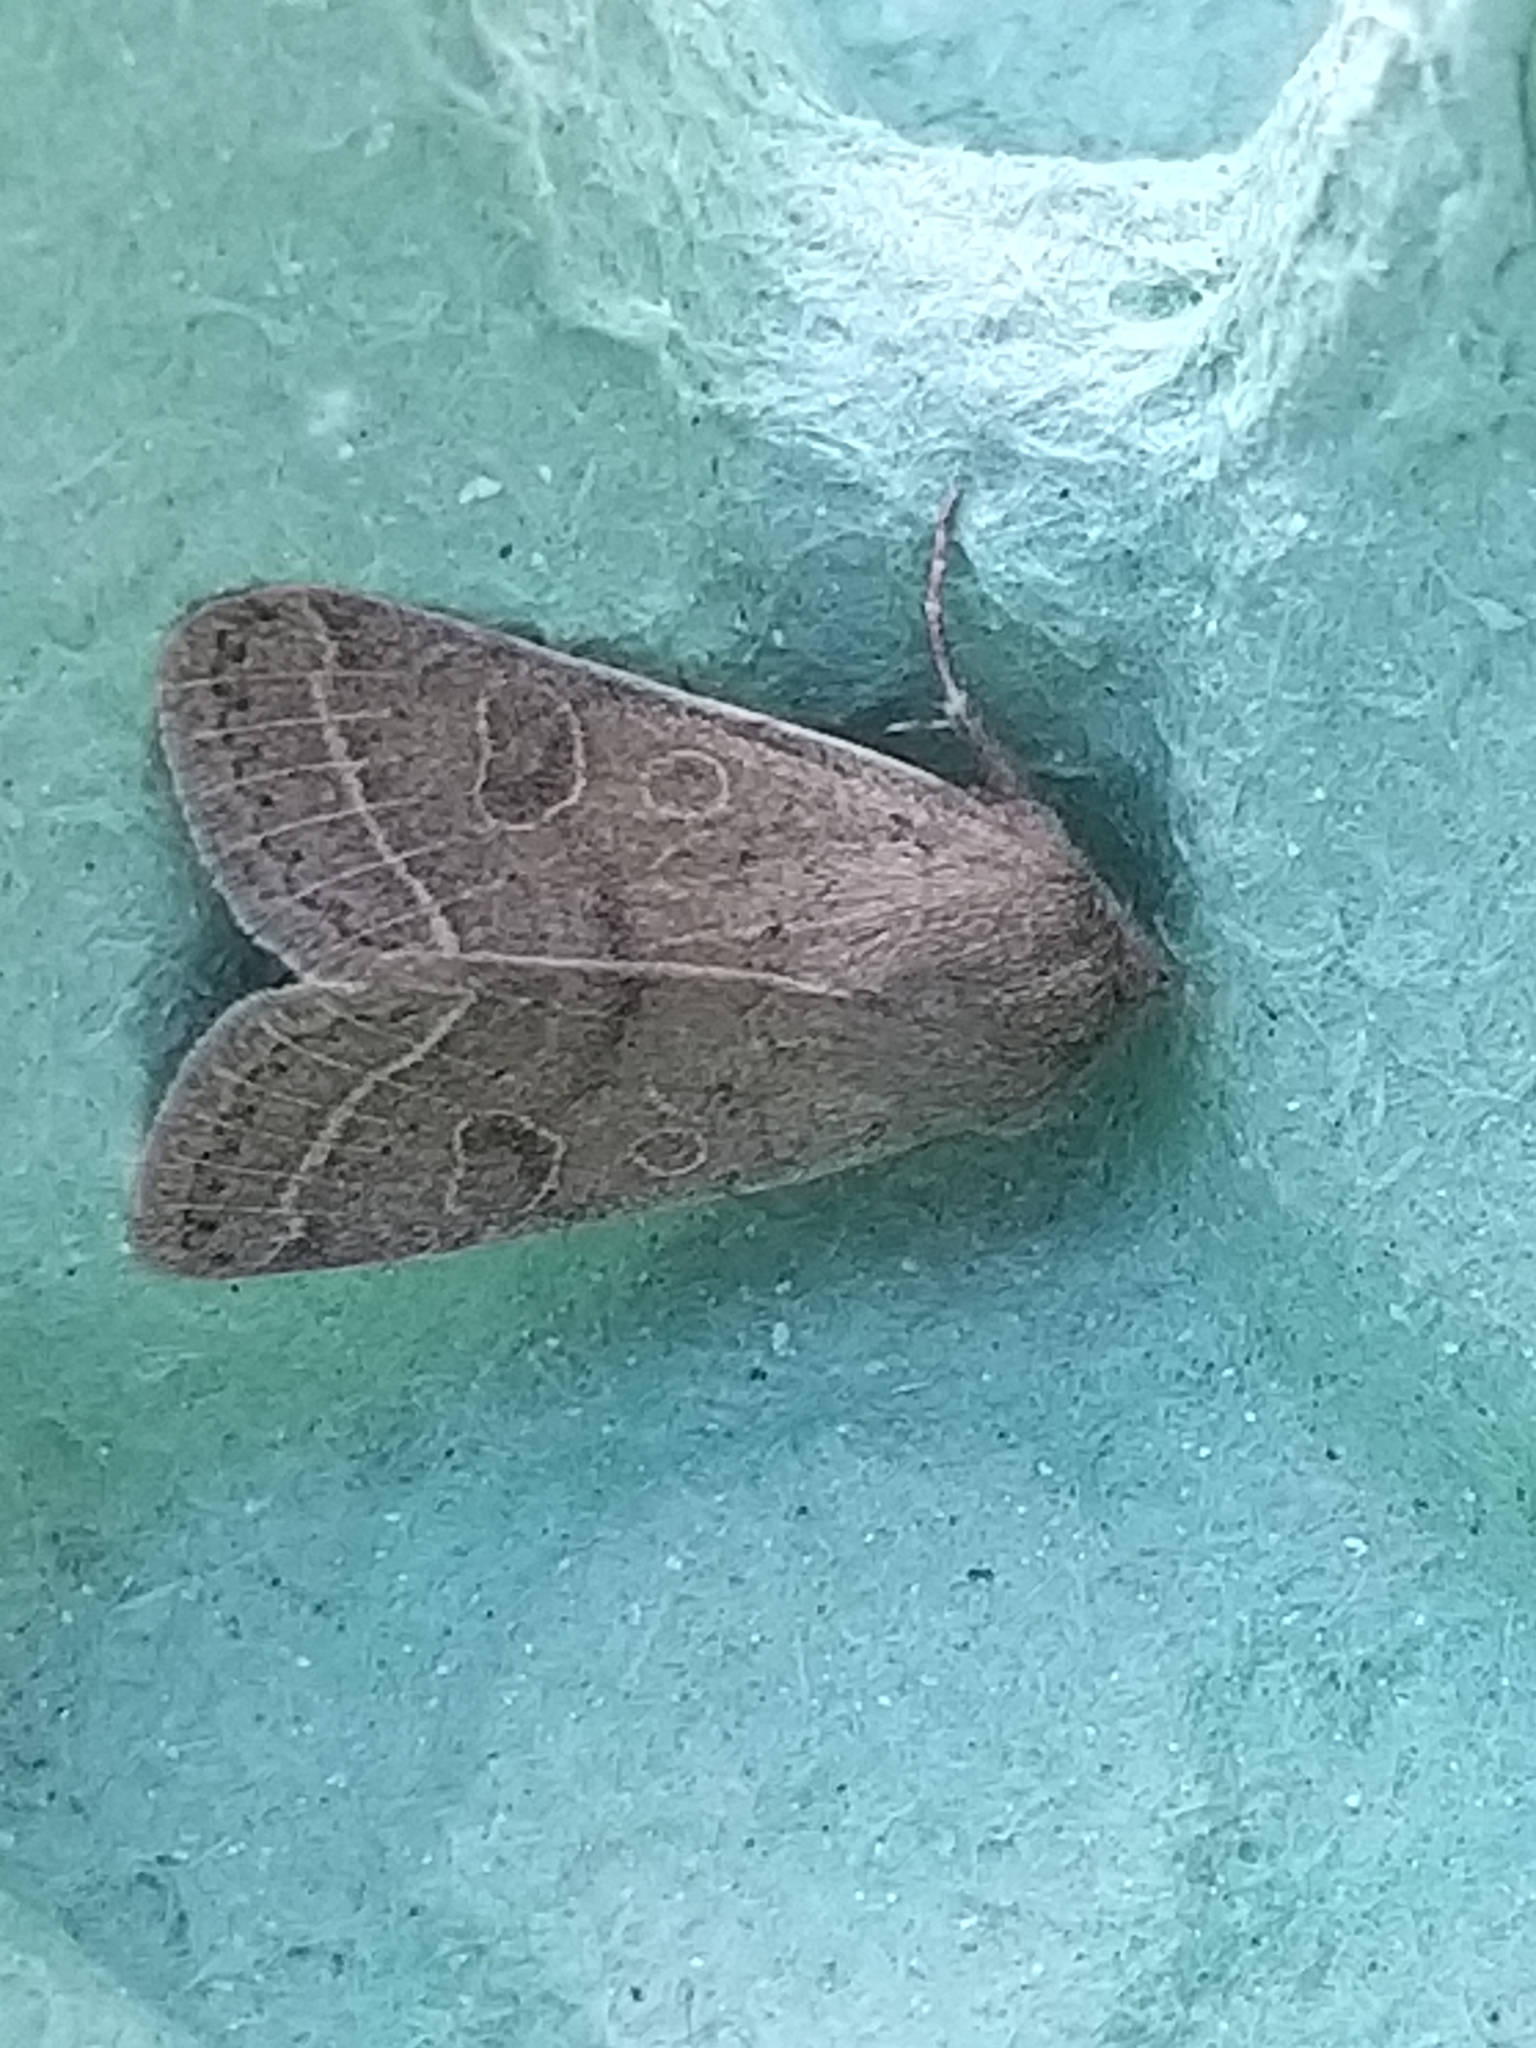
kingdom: Animalia
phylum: Arthropoda
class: Insecta
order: Lepidoptera
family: Noctuidae
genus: Orthosia
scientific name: Orthosia cerasi
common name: Common quaker
